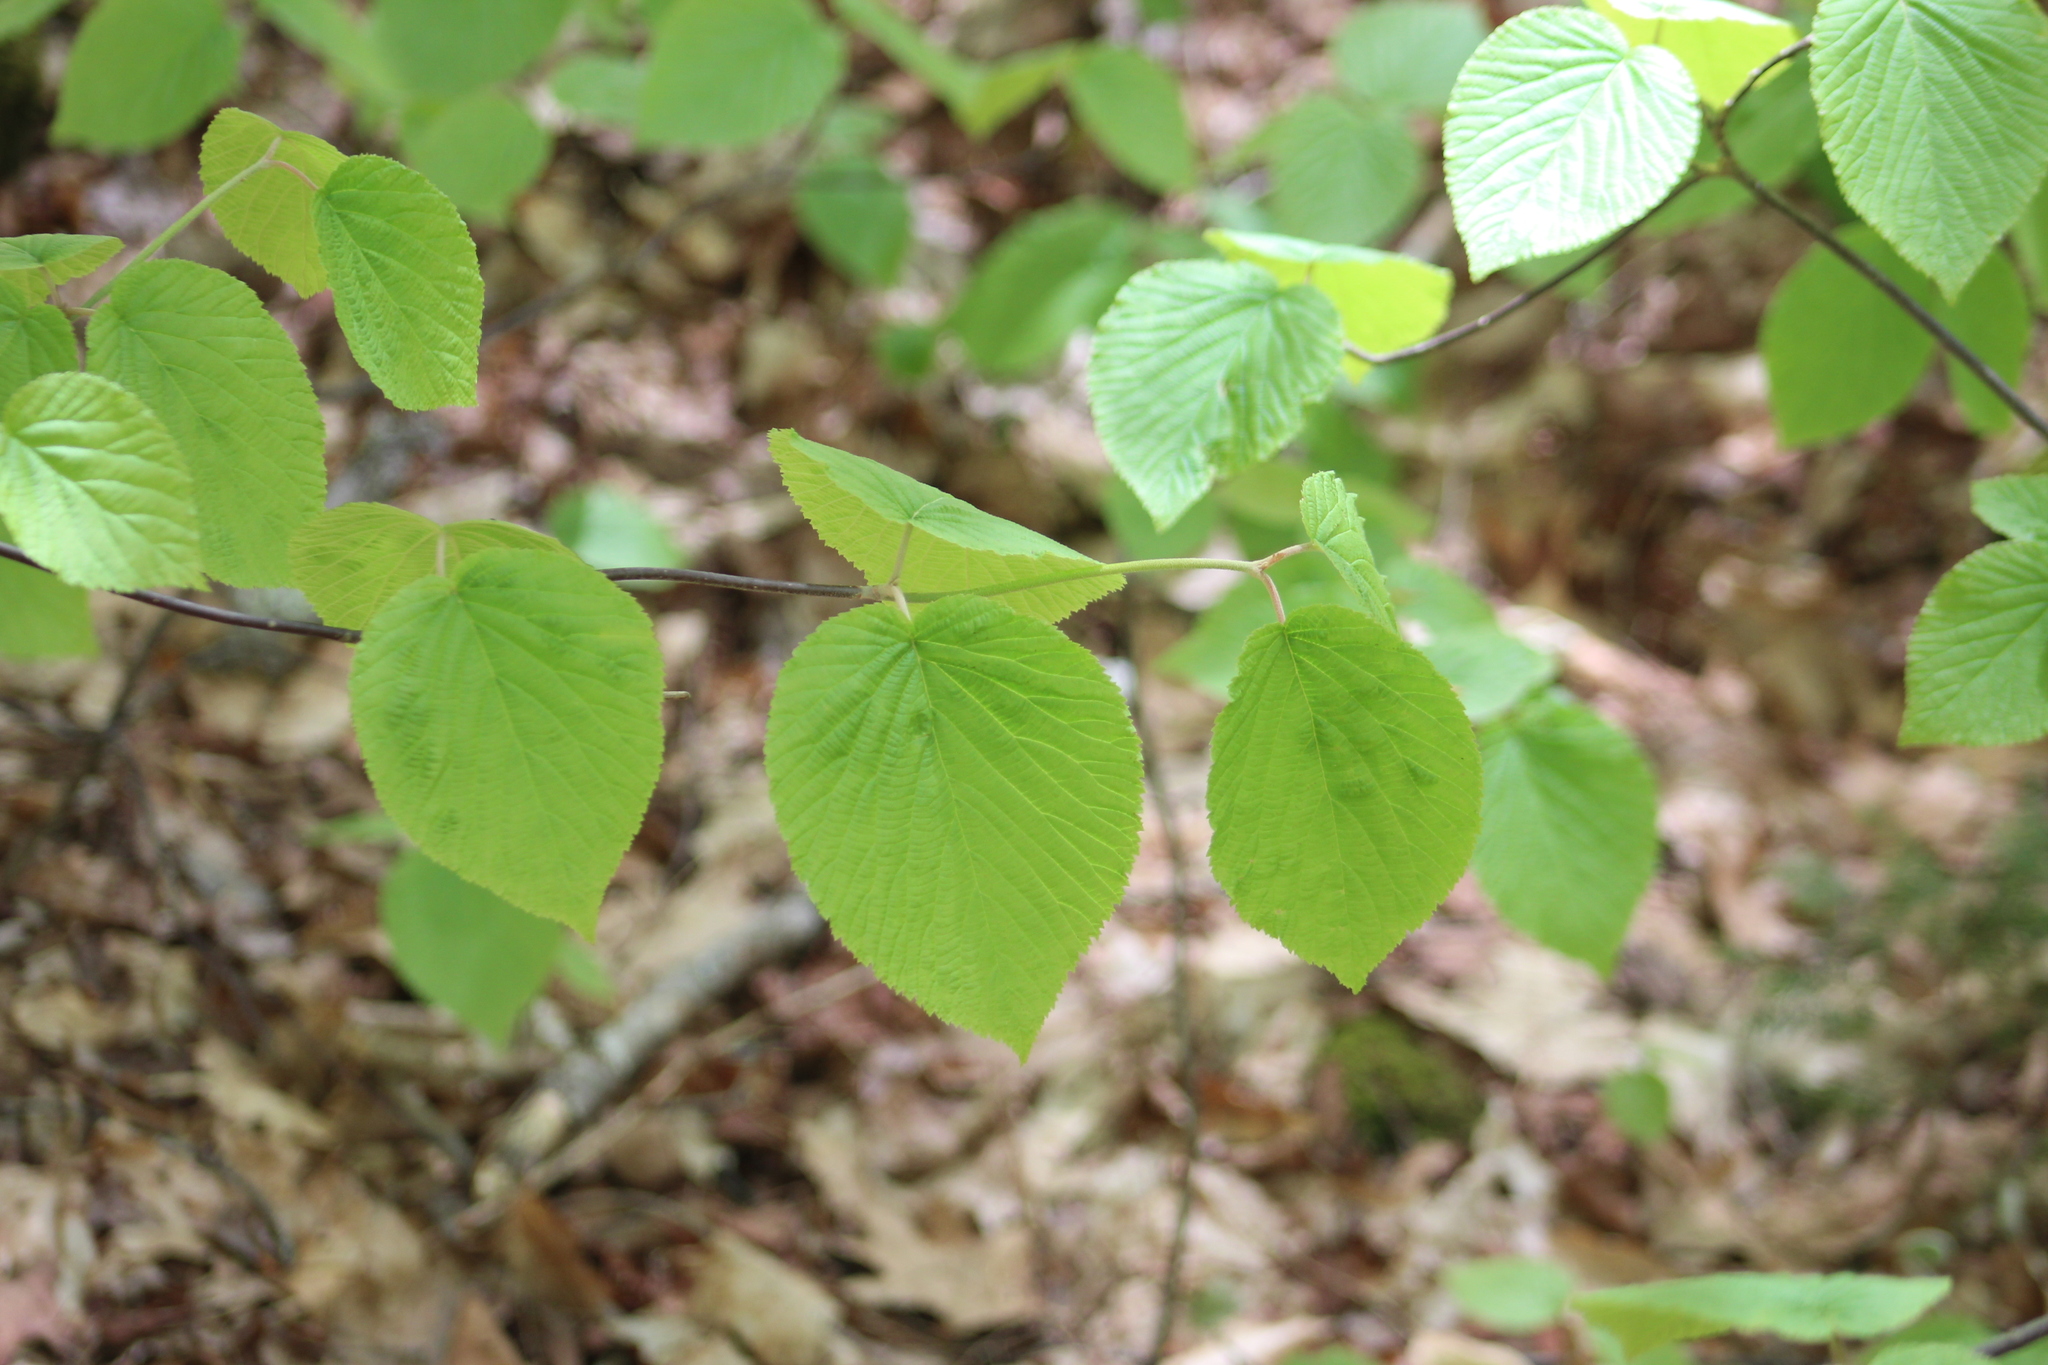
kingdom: Plantae
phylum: Tracheophyta
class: Magnoliopsida
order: Dipsacales
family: Viburnaceae
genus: Viburnum
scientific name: Viburnum lantanoides
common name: Hobblebush
